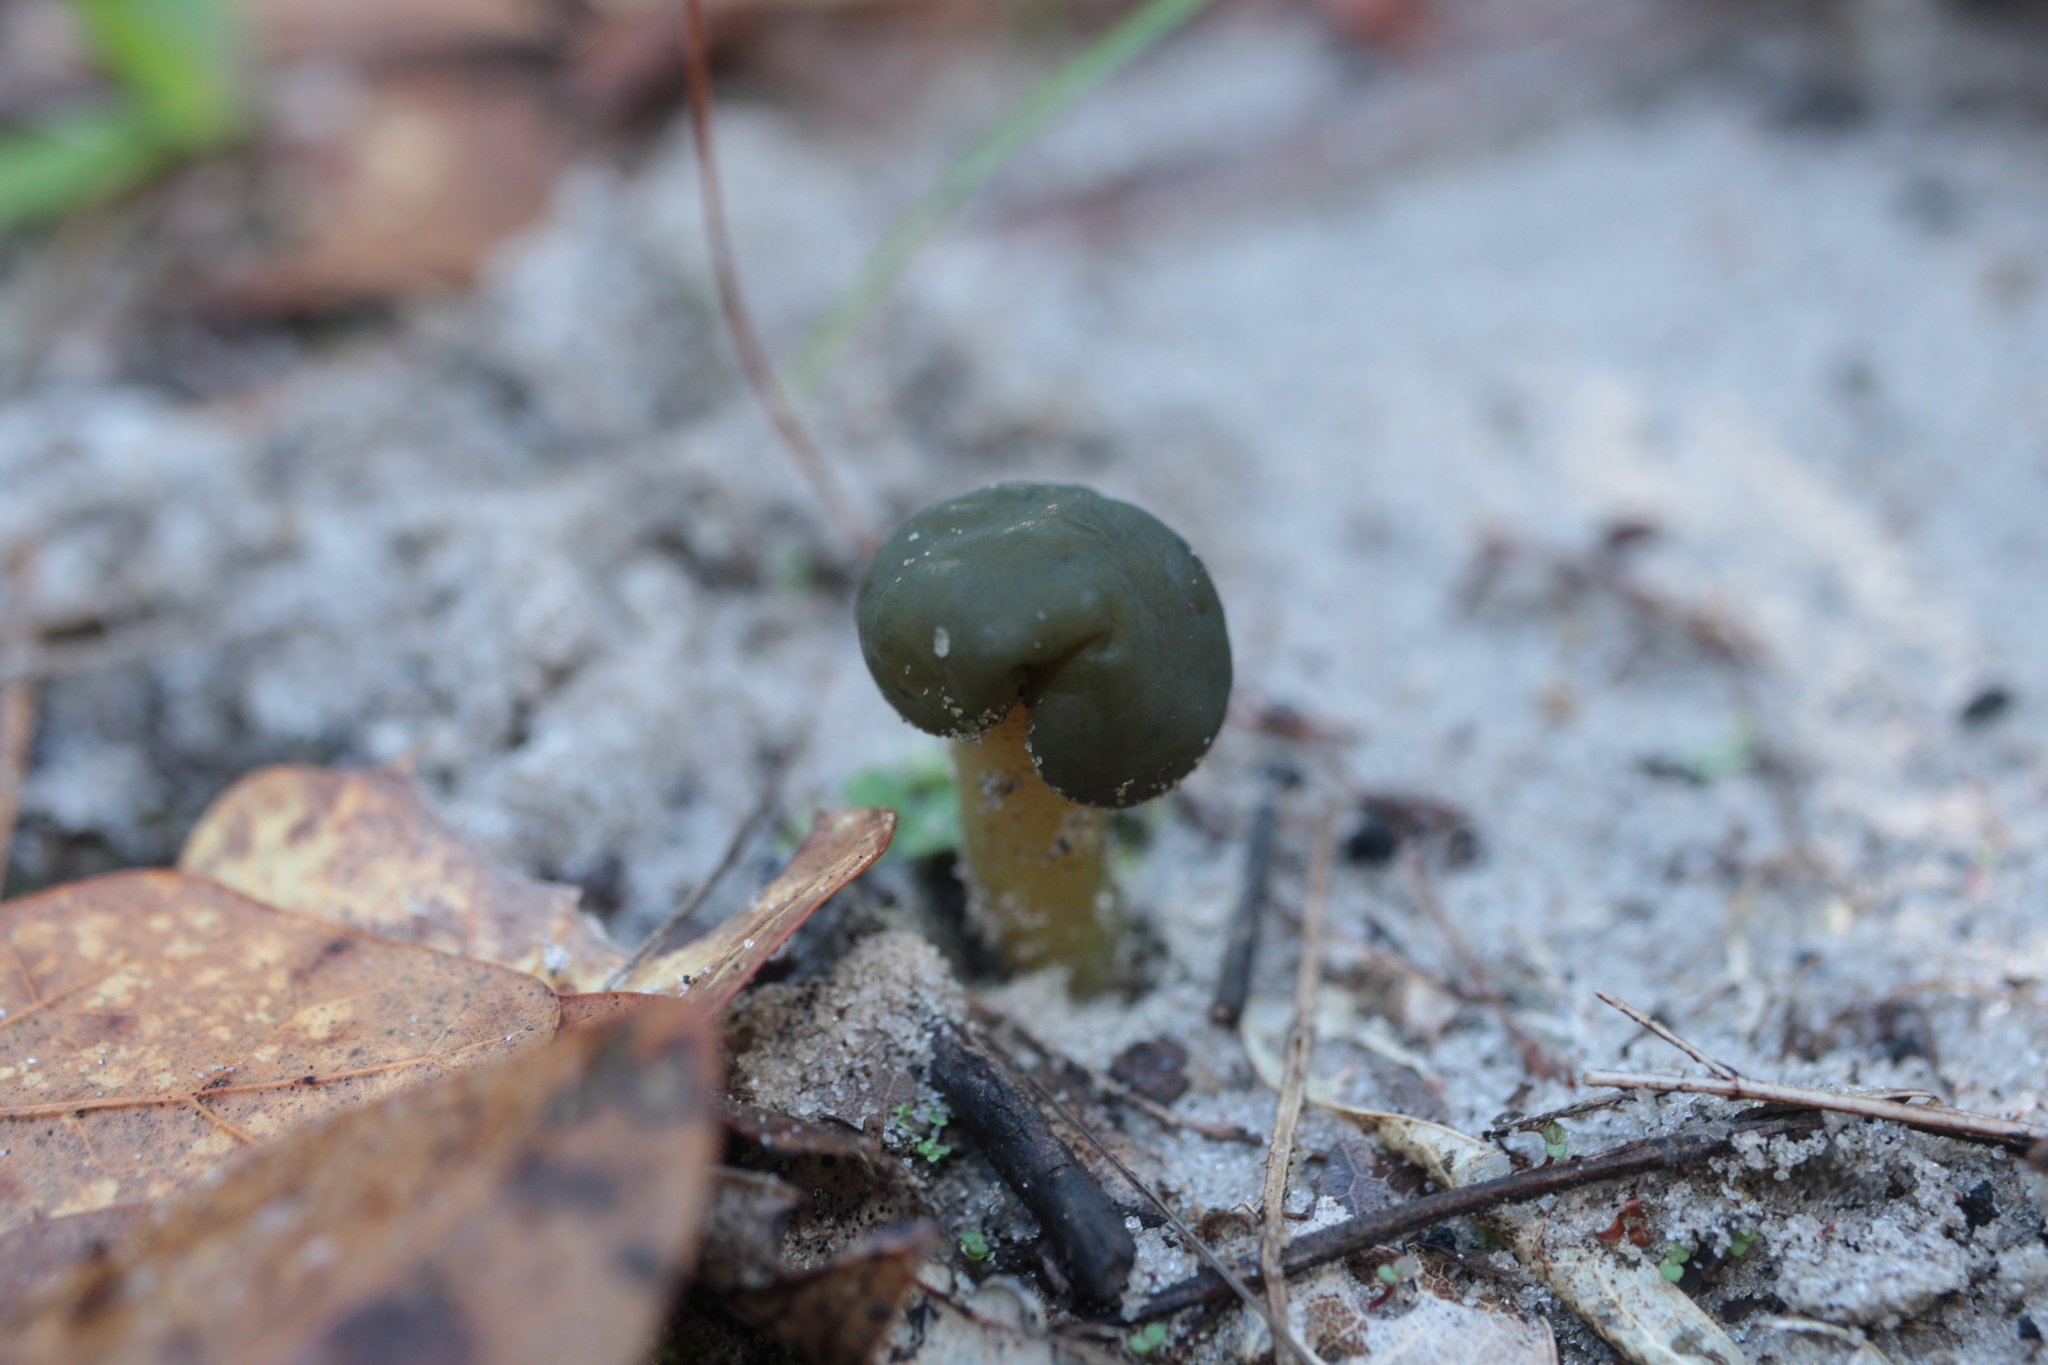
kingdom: Fungi
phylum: Ascomycota
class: Leotiomycetes
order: Leotiales
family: Leotiaceae
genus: Leotia
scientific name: Leotia lubrica
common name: Jellybaby
